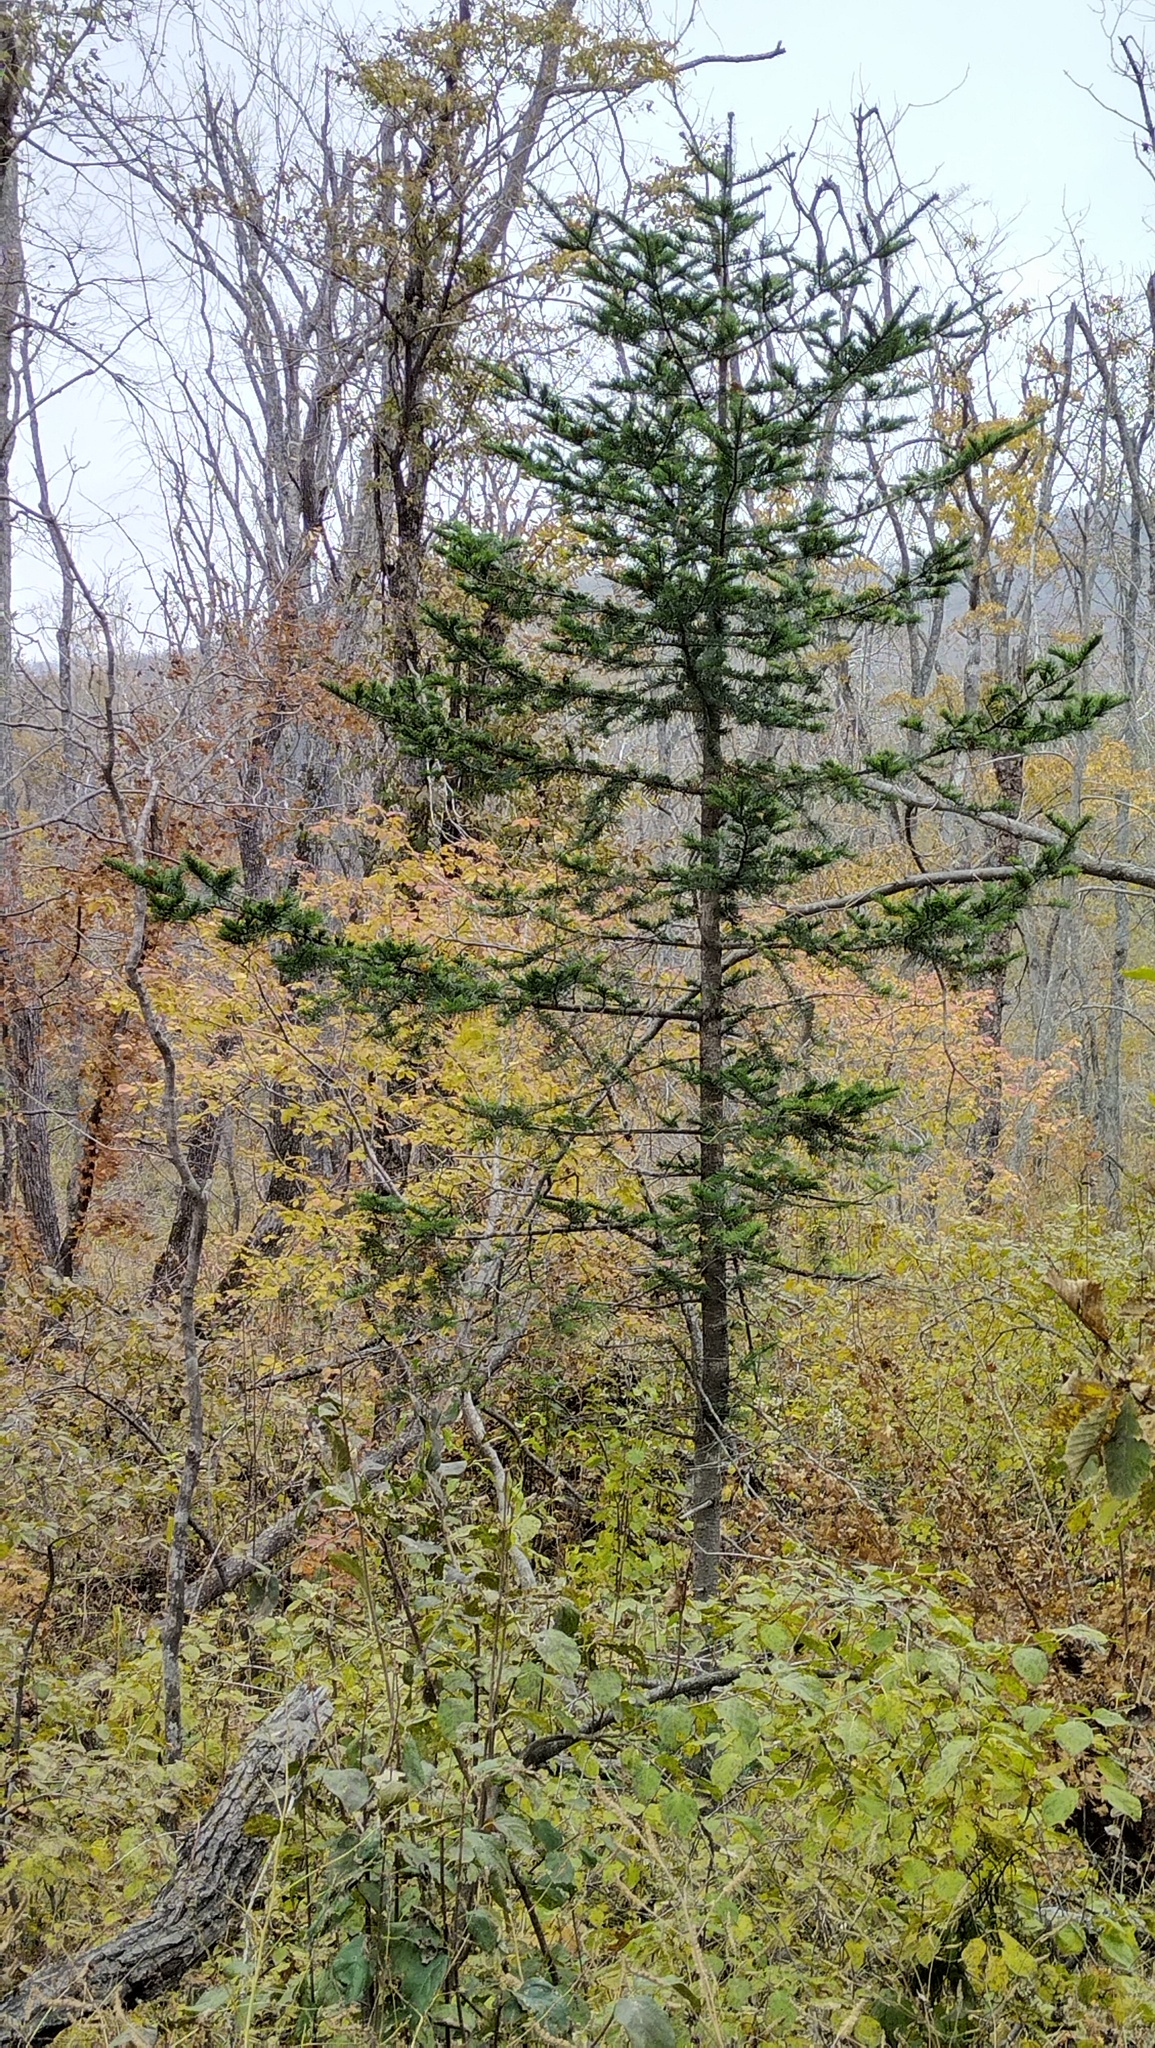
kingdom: Plantae
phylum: Tracheophyta
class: Pinopsida
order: Pinales
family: Pinaceae
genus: Picea
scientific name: Picea jezoensis
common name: Yeddo spruce
